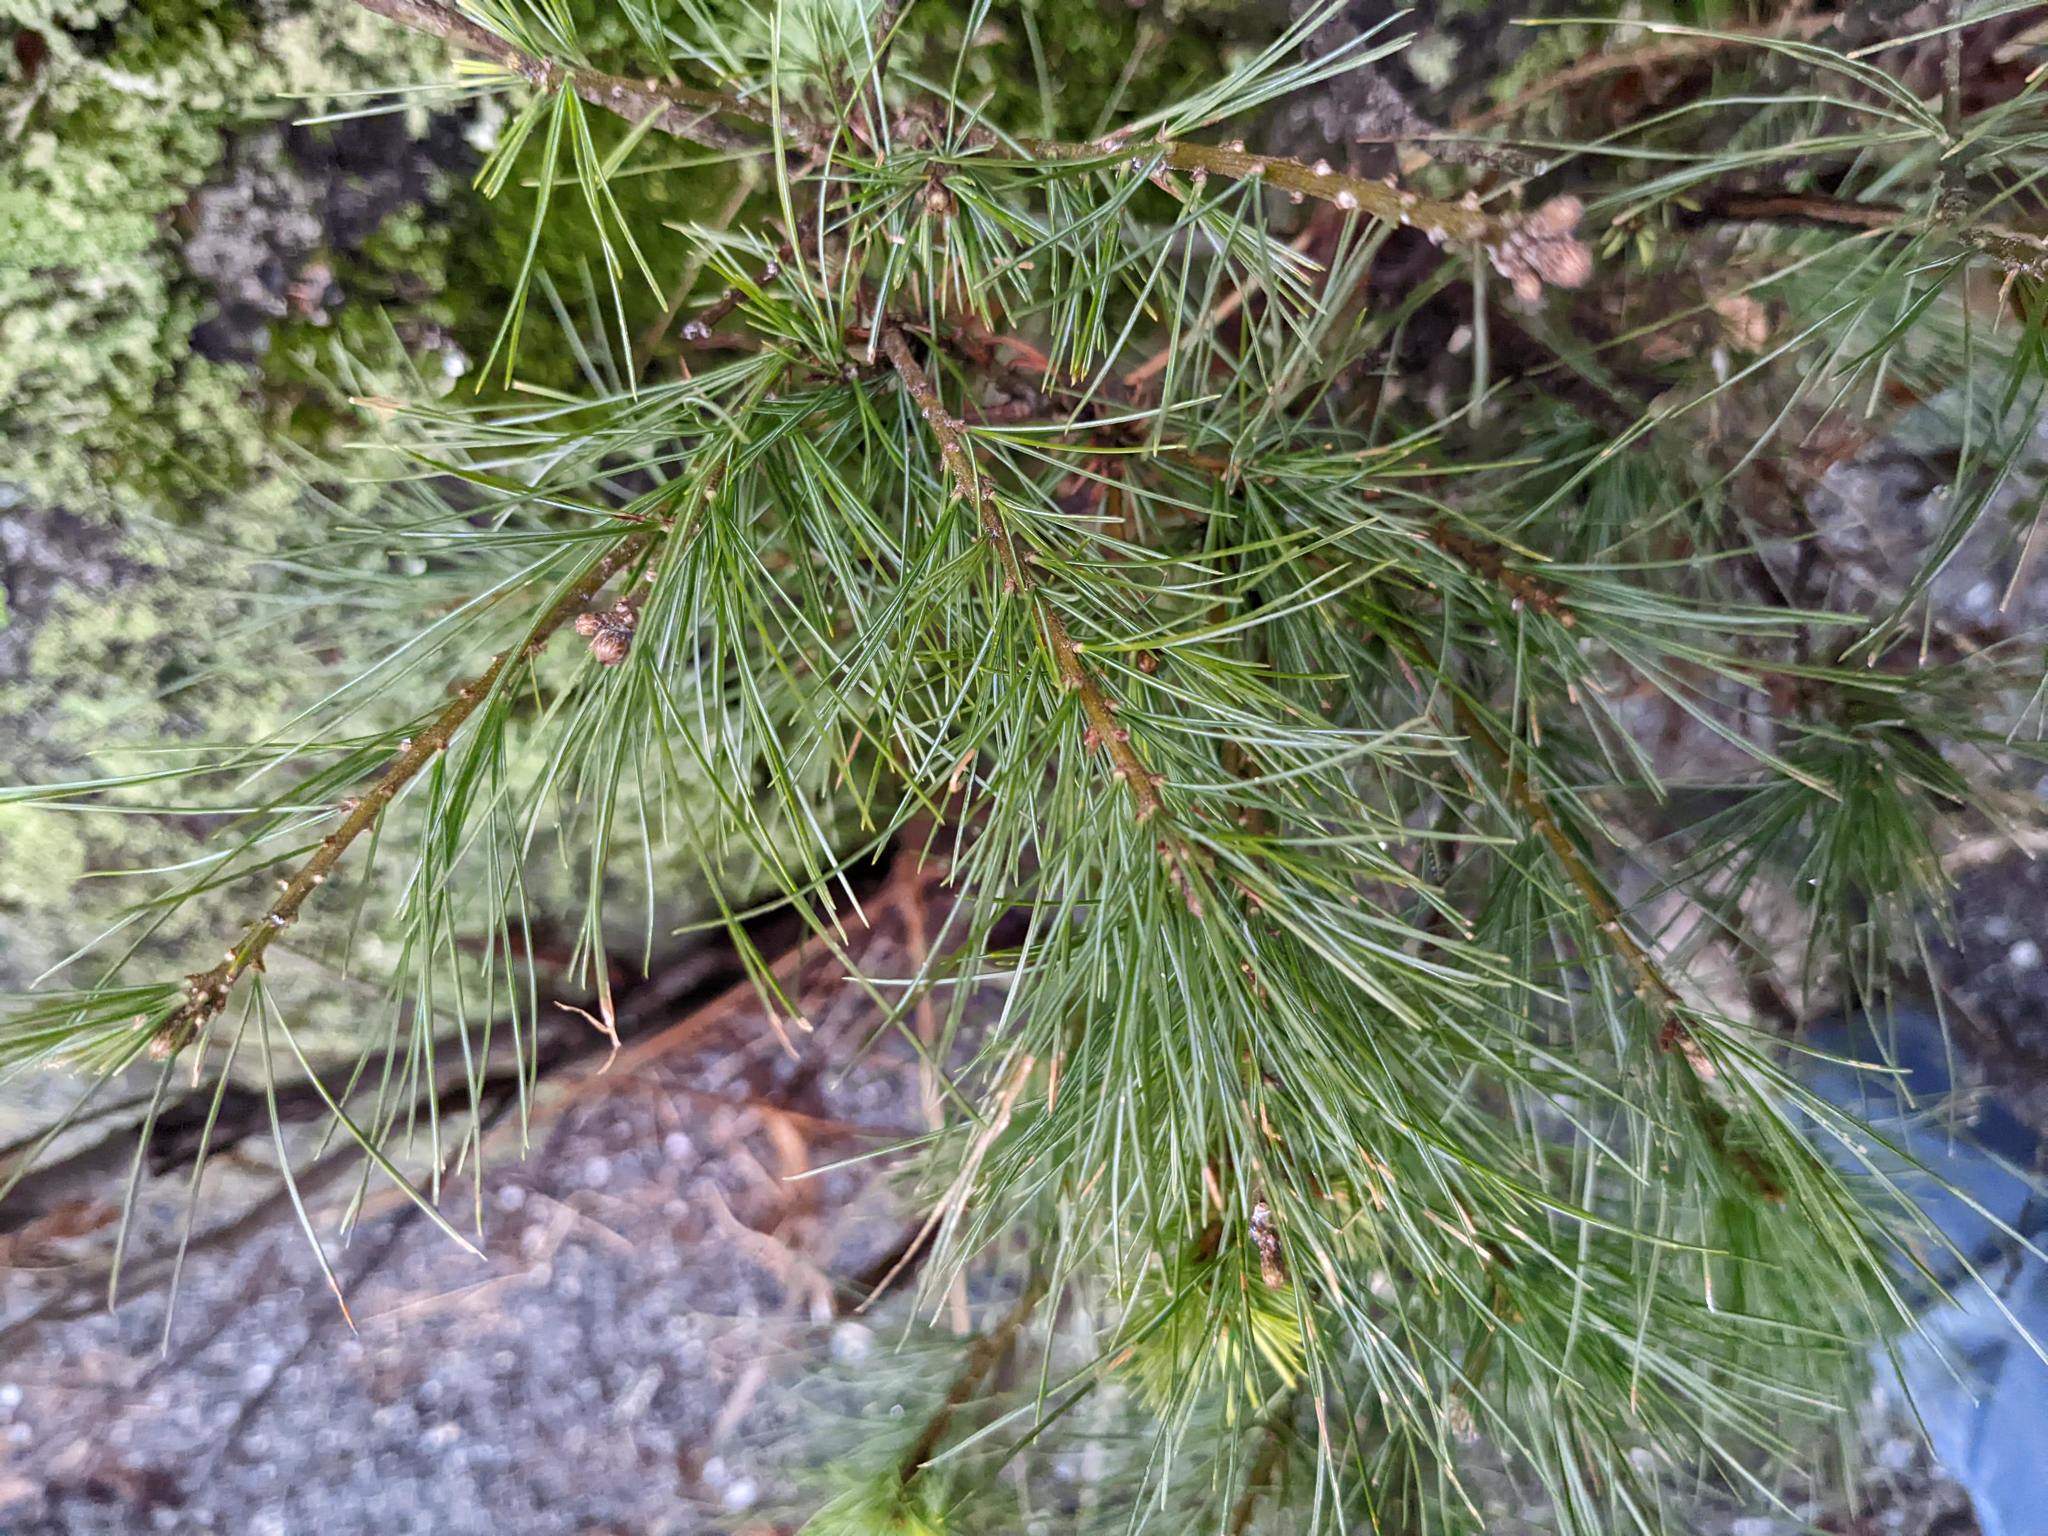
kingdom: Plantae
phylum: Tracheophyta
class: Pinopsida
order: Pinales
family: Pinaceae
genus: Pinus
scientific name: Pinus strobus
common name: Weymouth pine
